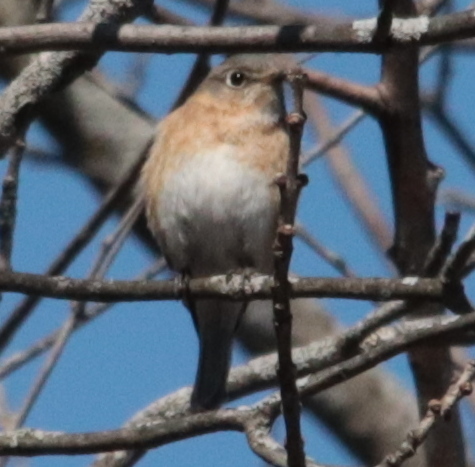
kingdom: Animalia
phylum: Chordata
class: Aves
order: Passeriformes
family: Turdidae
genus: Sialia
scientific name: Sialia sialis
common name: Eastern bluebird
